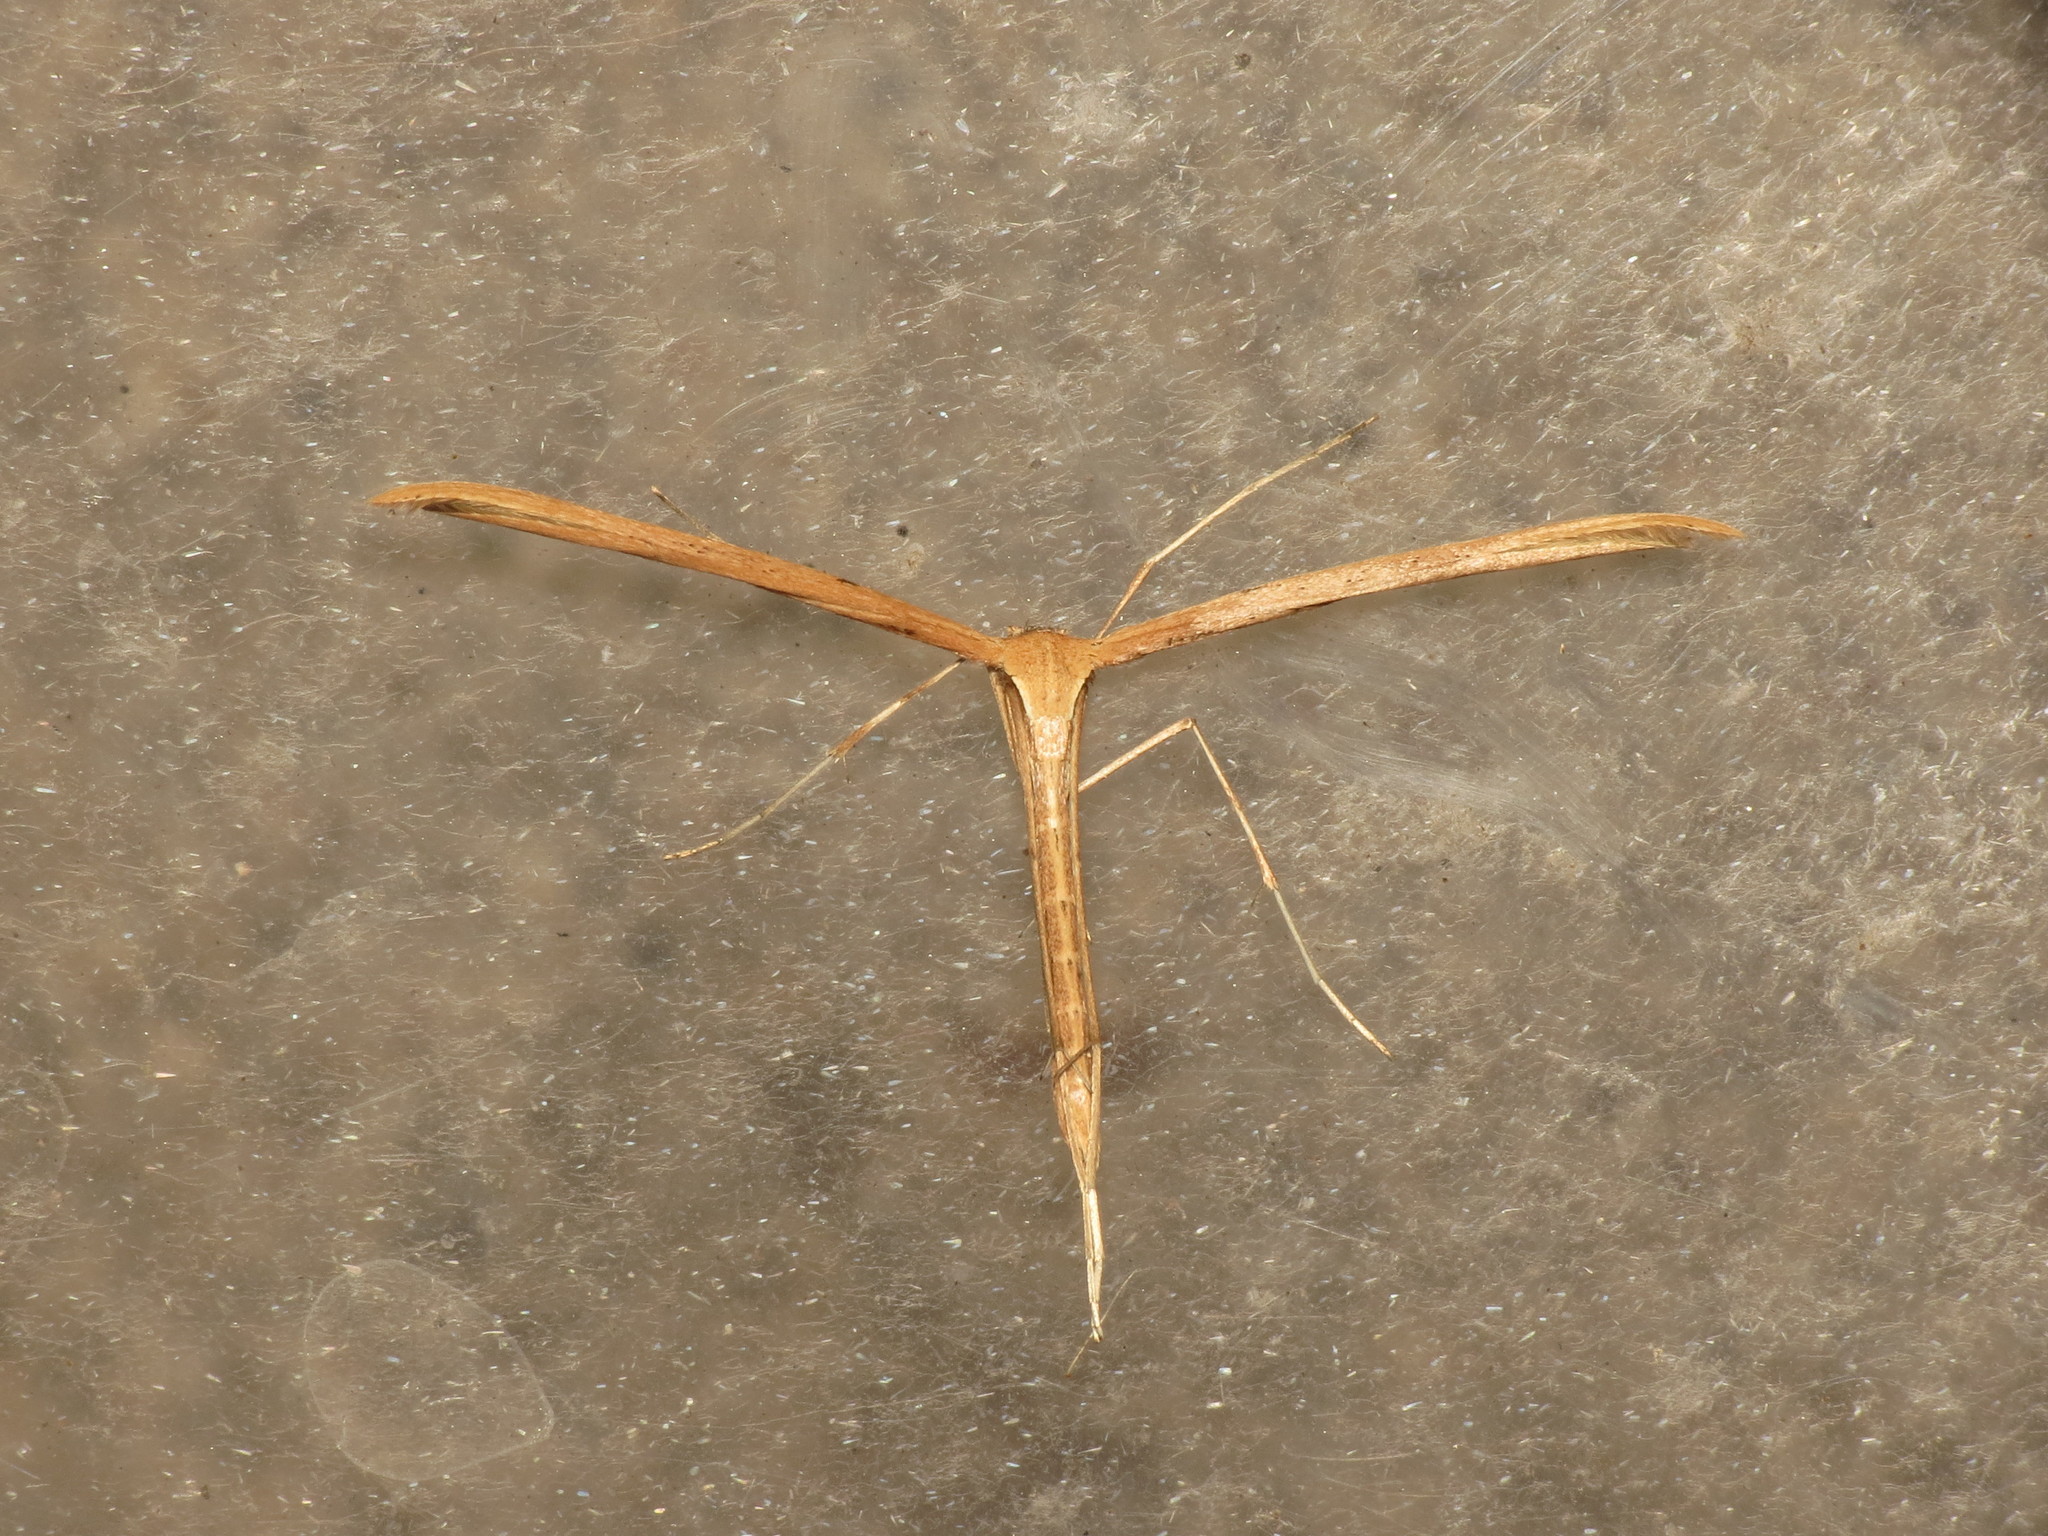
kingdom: Animalia
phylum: Arthropoda
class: Insecta
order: Lepidoptera
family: Pterophoridae
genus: Emmelina
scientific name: Emmelina monodactyla
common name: Common plume
